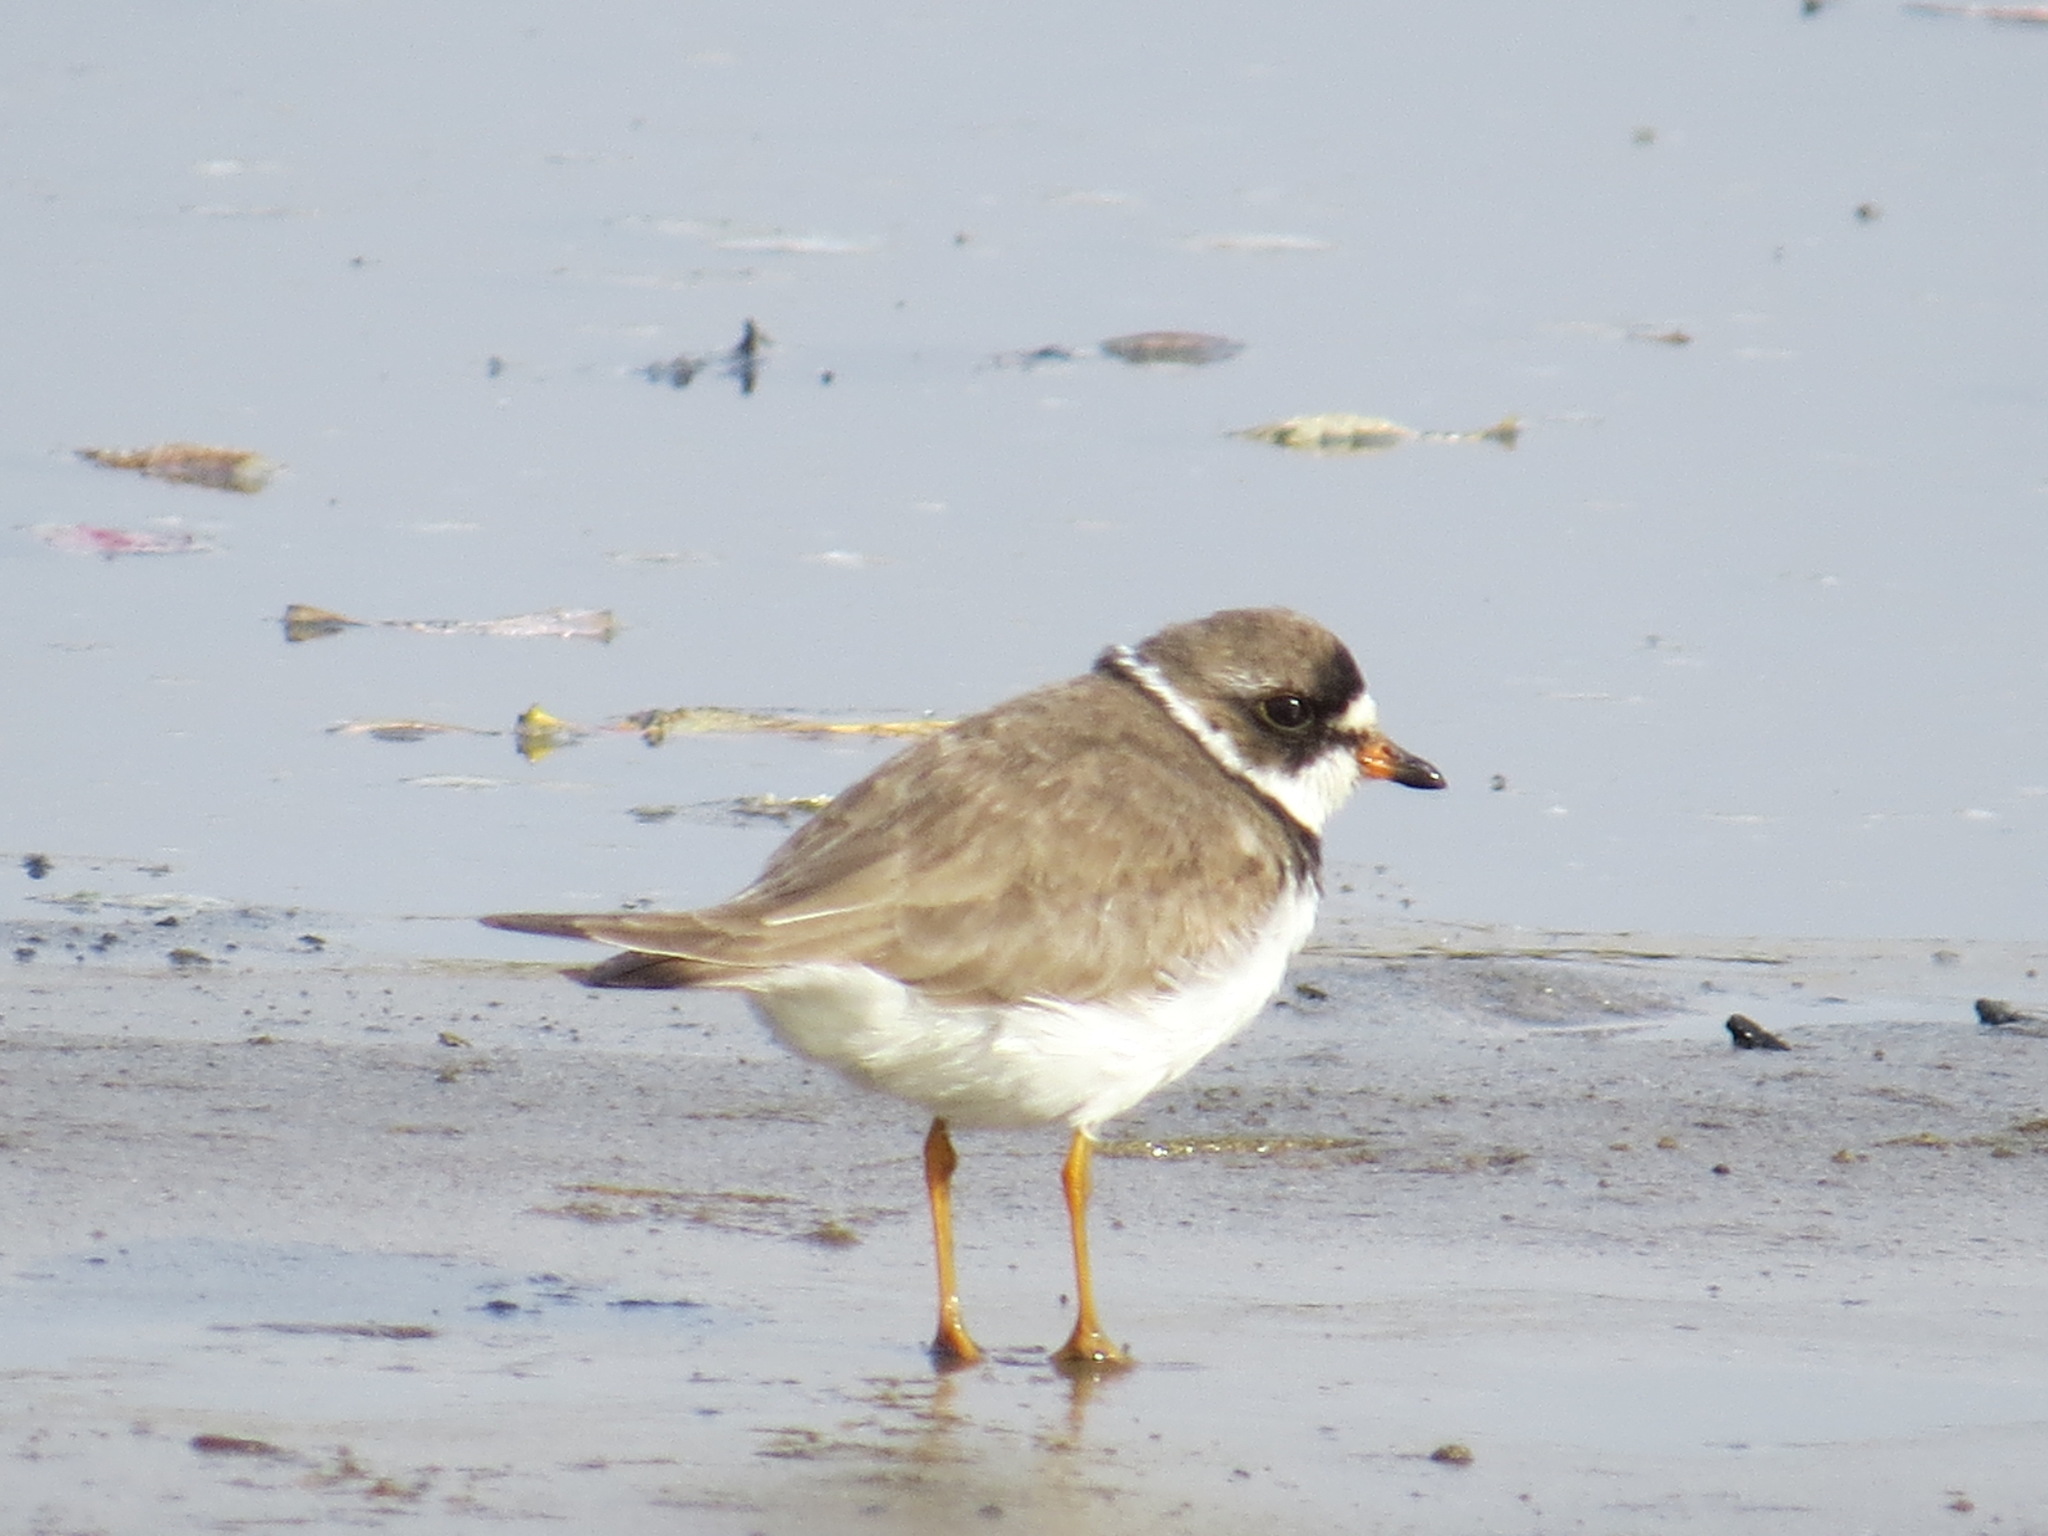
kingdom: Animalia
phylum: Chordata
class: Aves
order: Charadriiformes
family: Charadriidae
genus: Charadrius
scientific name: Charadrius semipalmatus
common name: Semipalmated plover
